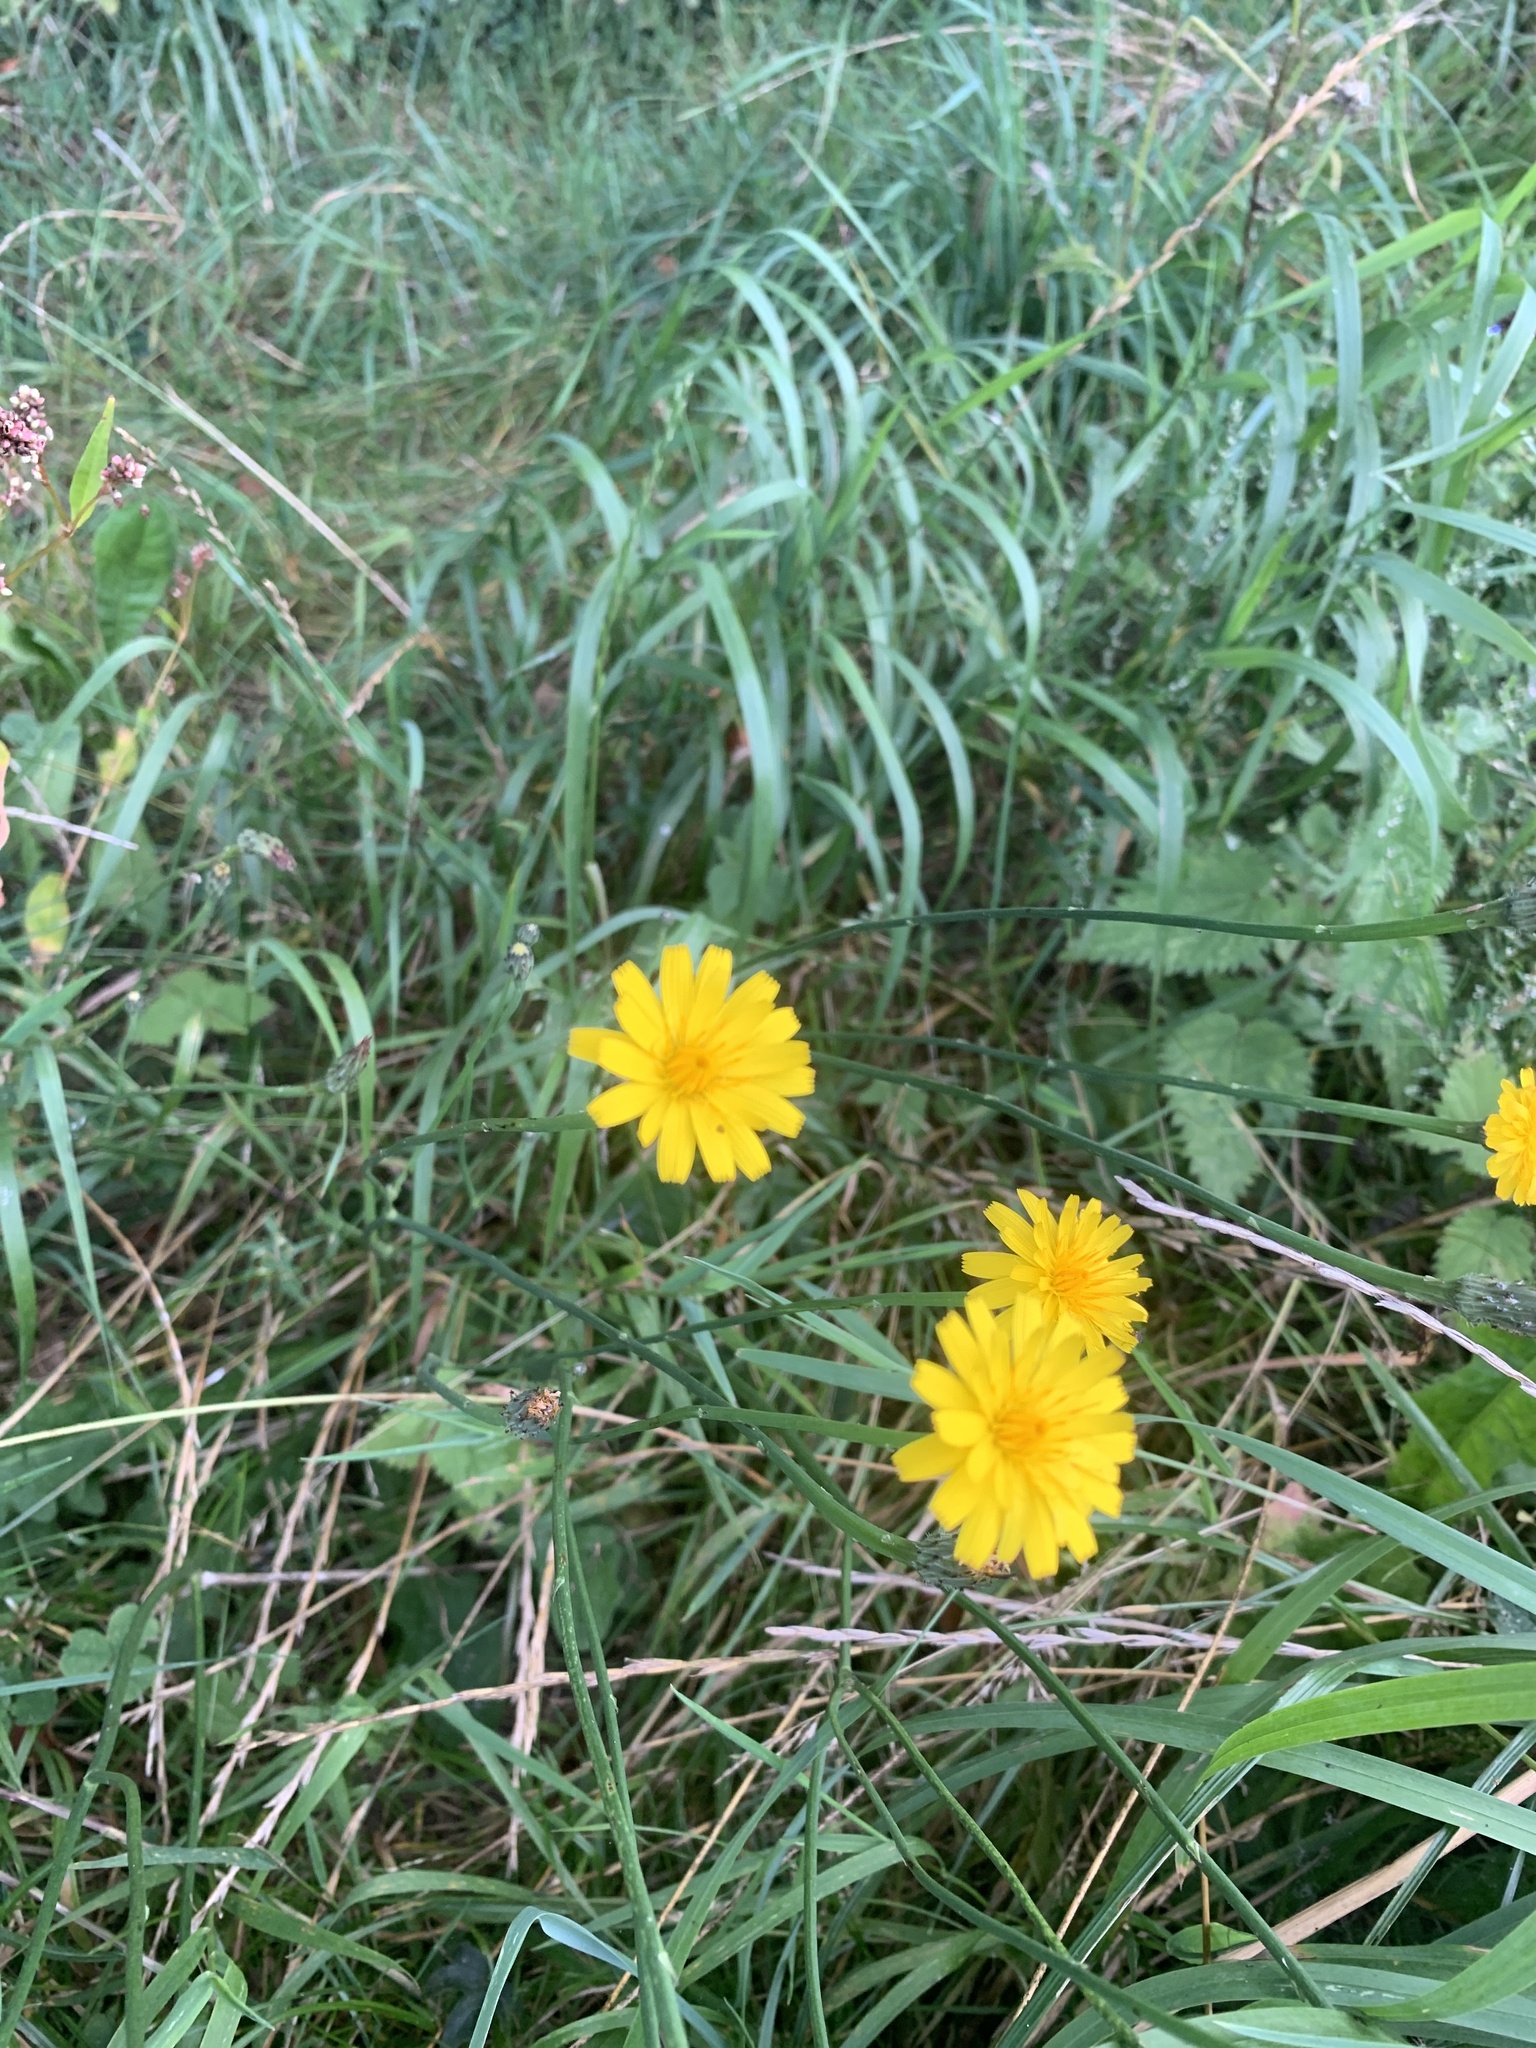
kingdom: Plantae
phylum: Tracheophyta
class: Magnoliopsida
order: Asterales
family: Asteraceae
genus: Crepis
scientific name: Crepis capillaris
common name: Smooth hawksbeard
